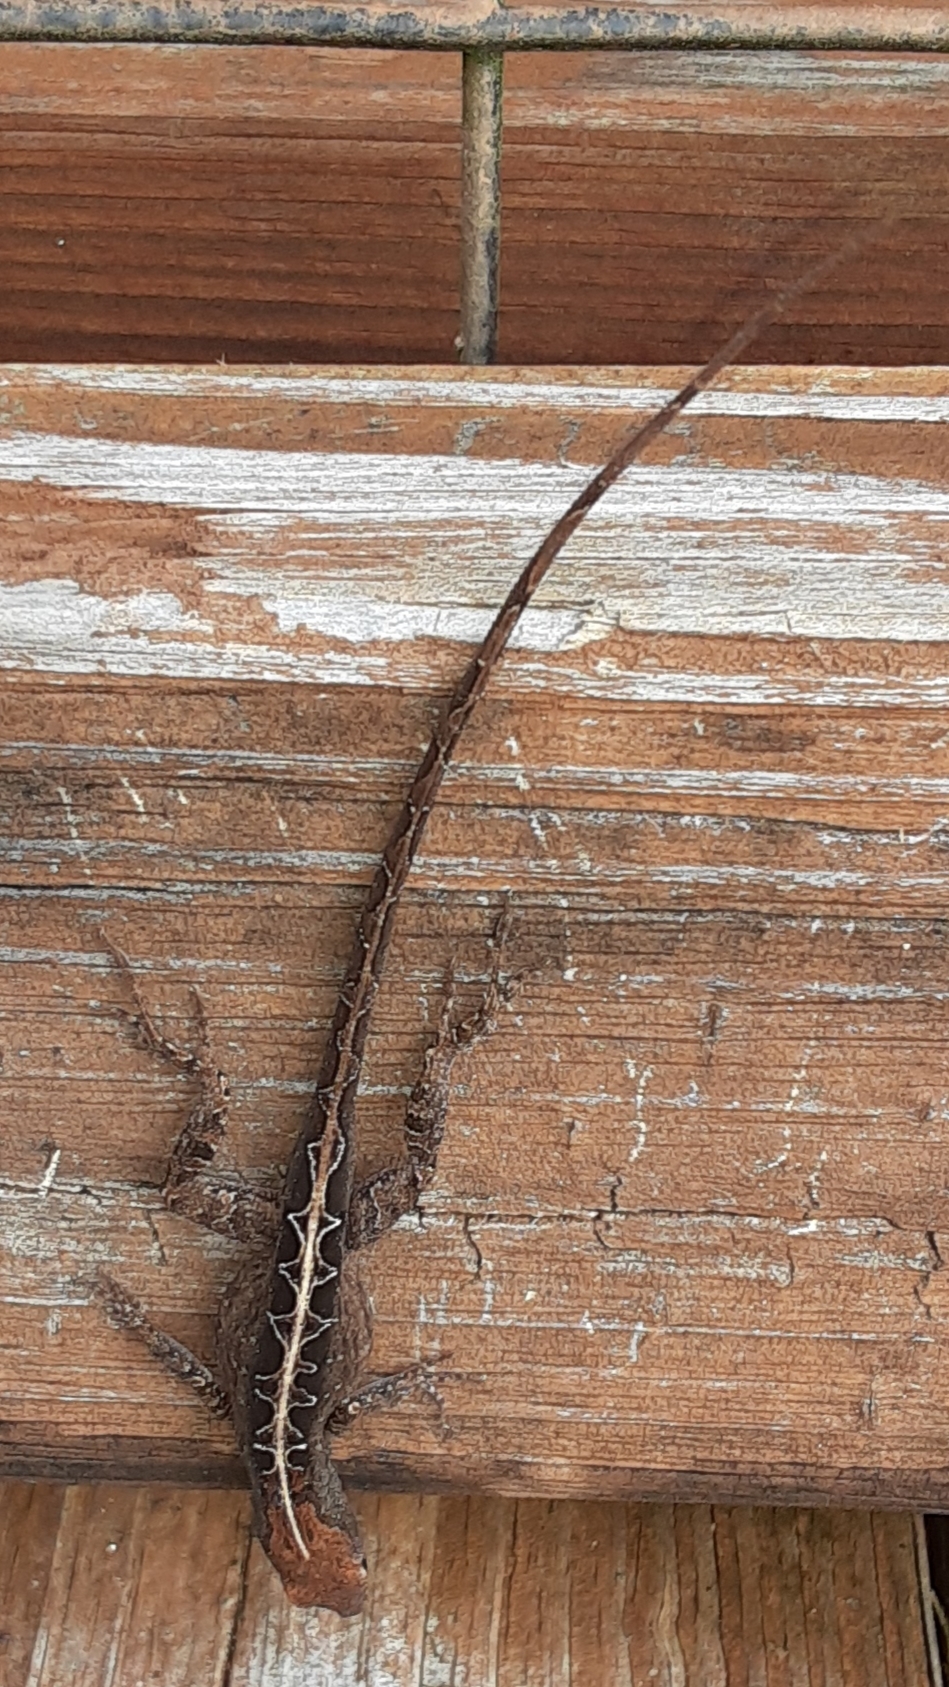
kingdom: Animalia
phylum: Chordata
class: Squamata
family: Dactyloidae
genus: Anolis
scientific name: Anolis sagrei
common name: Brown anole
